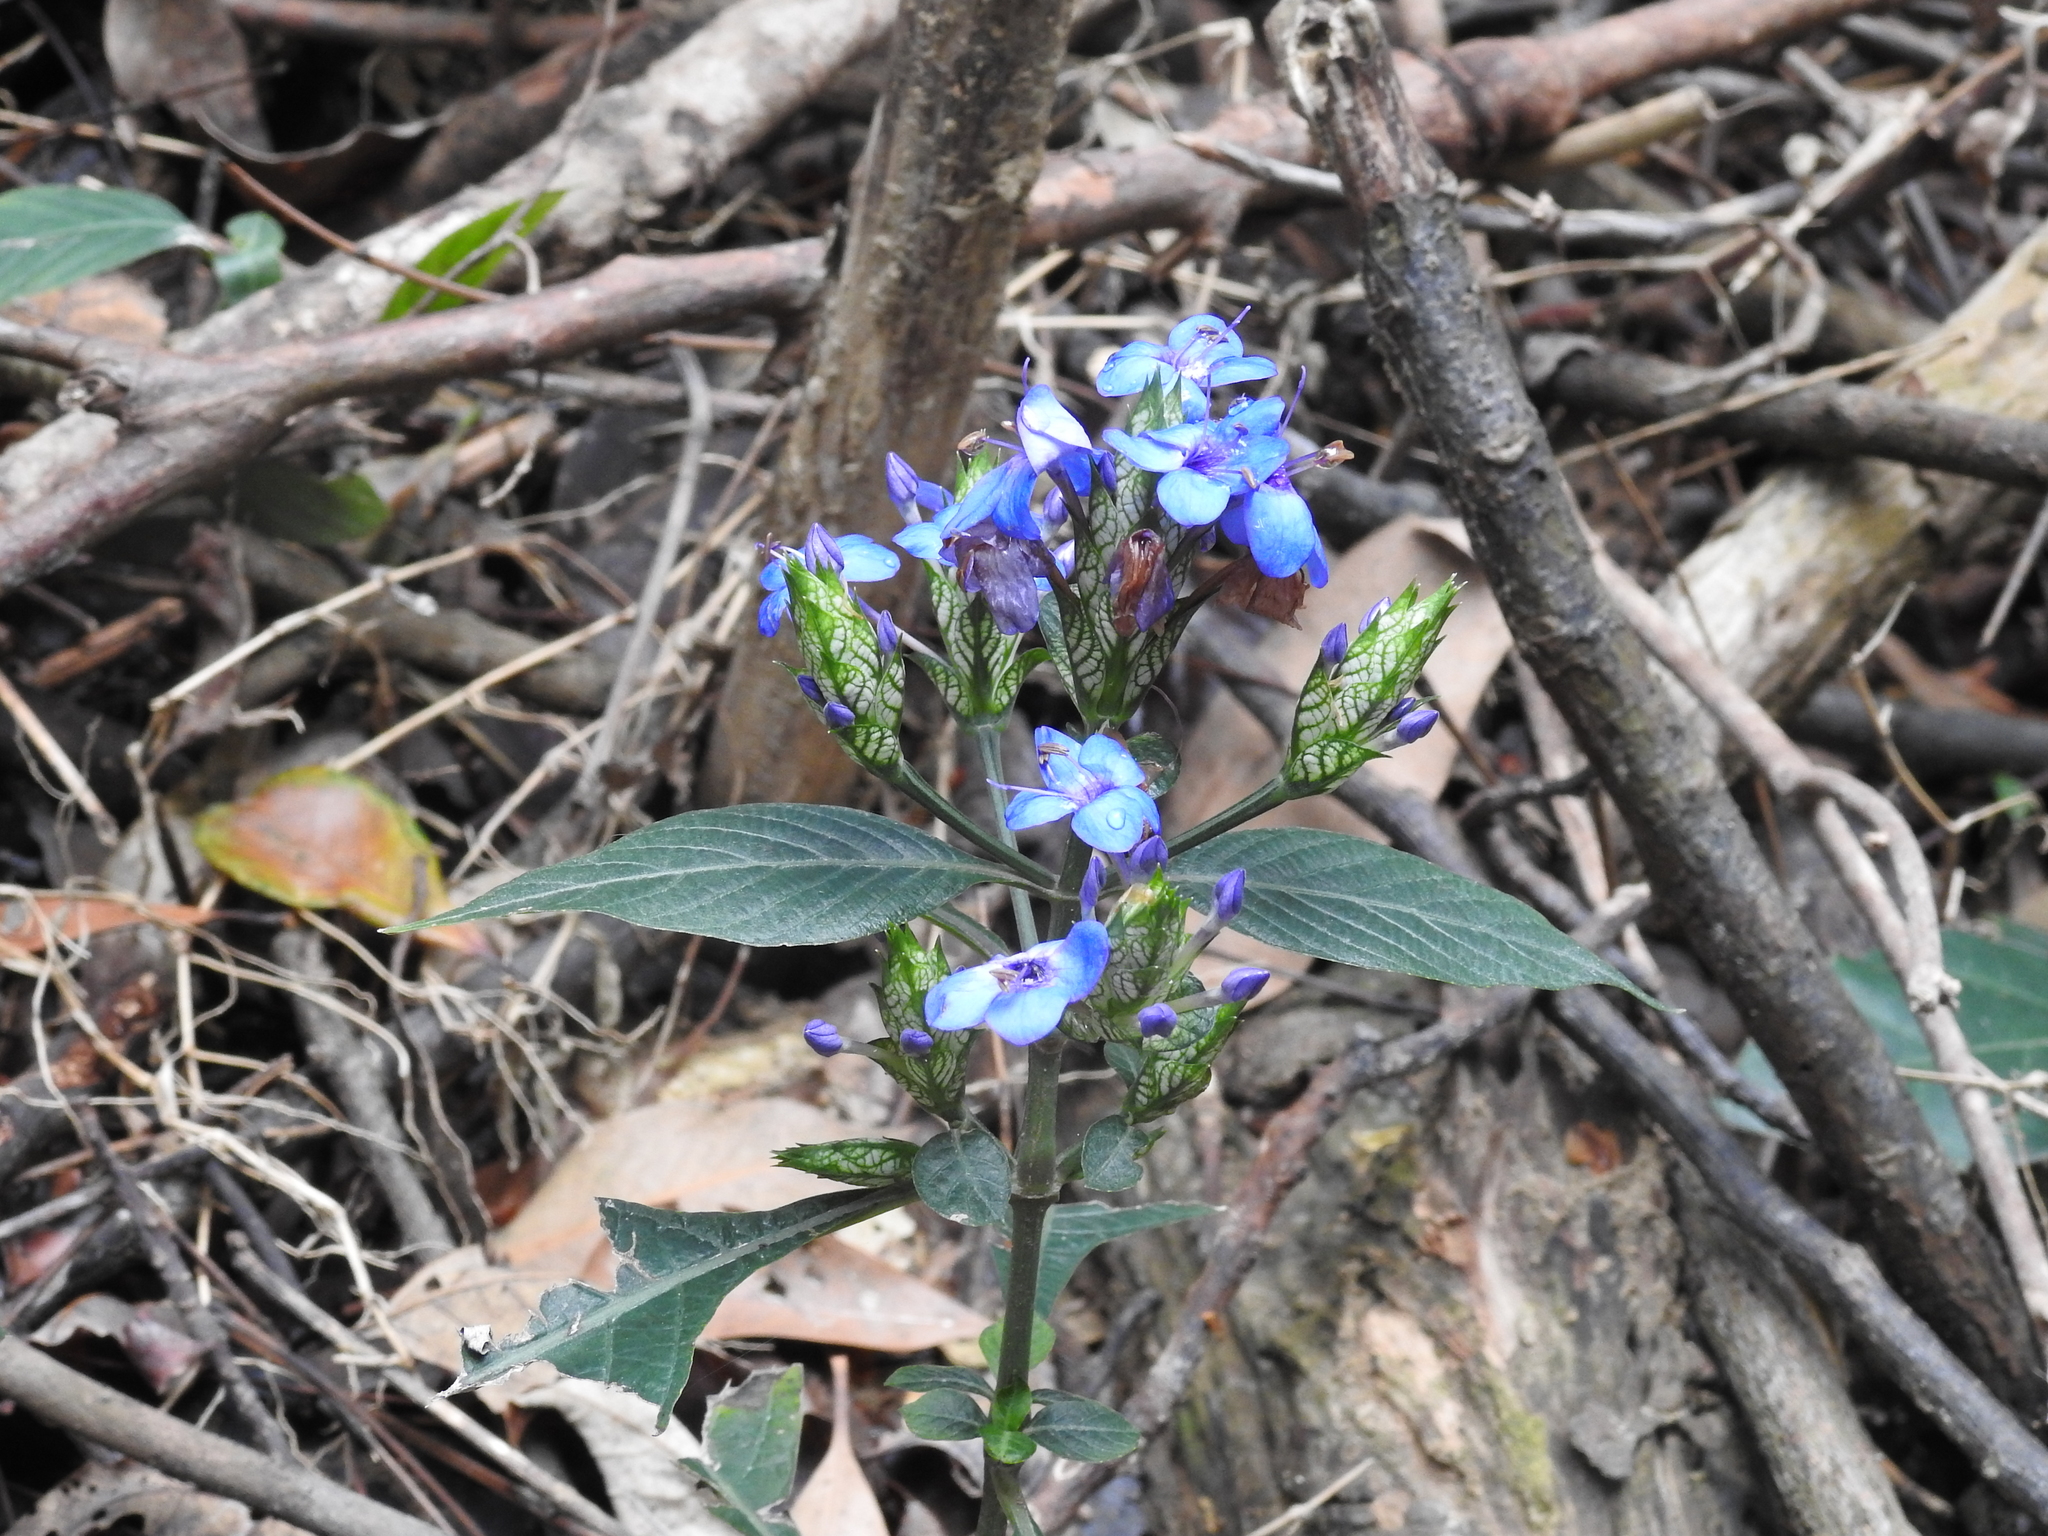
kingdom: Plantae
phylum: Tracheophyta
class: Magnoliopsida
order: Lamiales
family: Acanthaceae
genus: Eranthemum
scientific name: Eranthemum pulchellum
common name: Blue-sage
